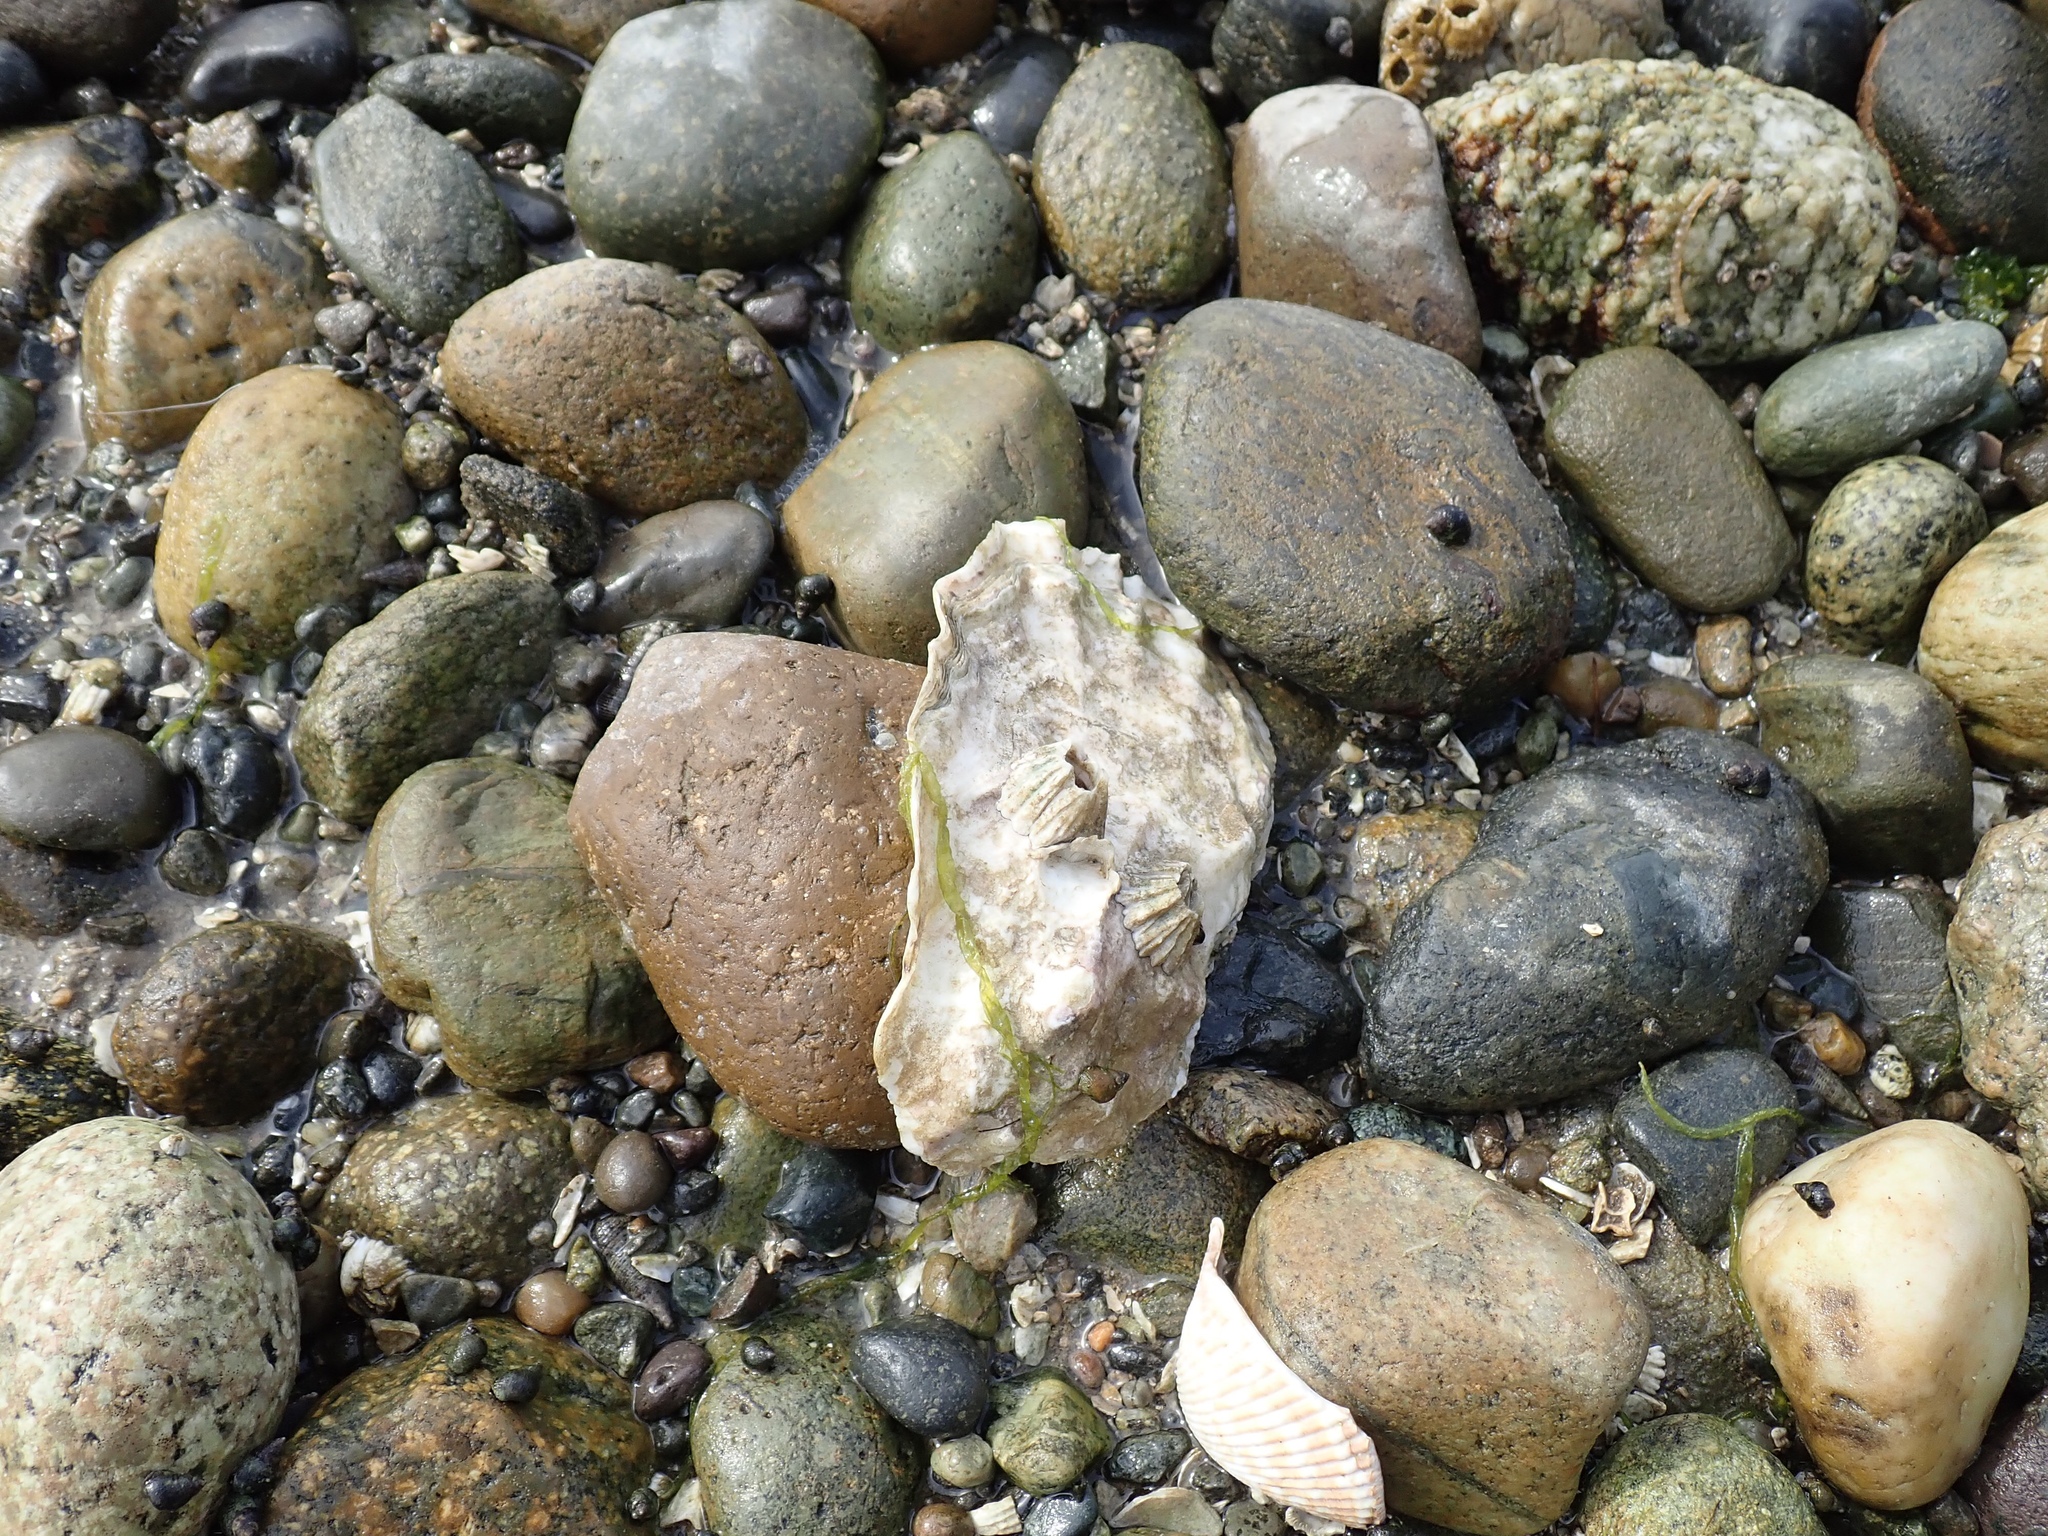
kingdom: Animalia
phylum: Mollusca
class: Bivalvia
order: Ostreida
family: Ostreidae
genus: Magallana
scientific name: Magallana gigas
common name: Pacific oyster
